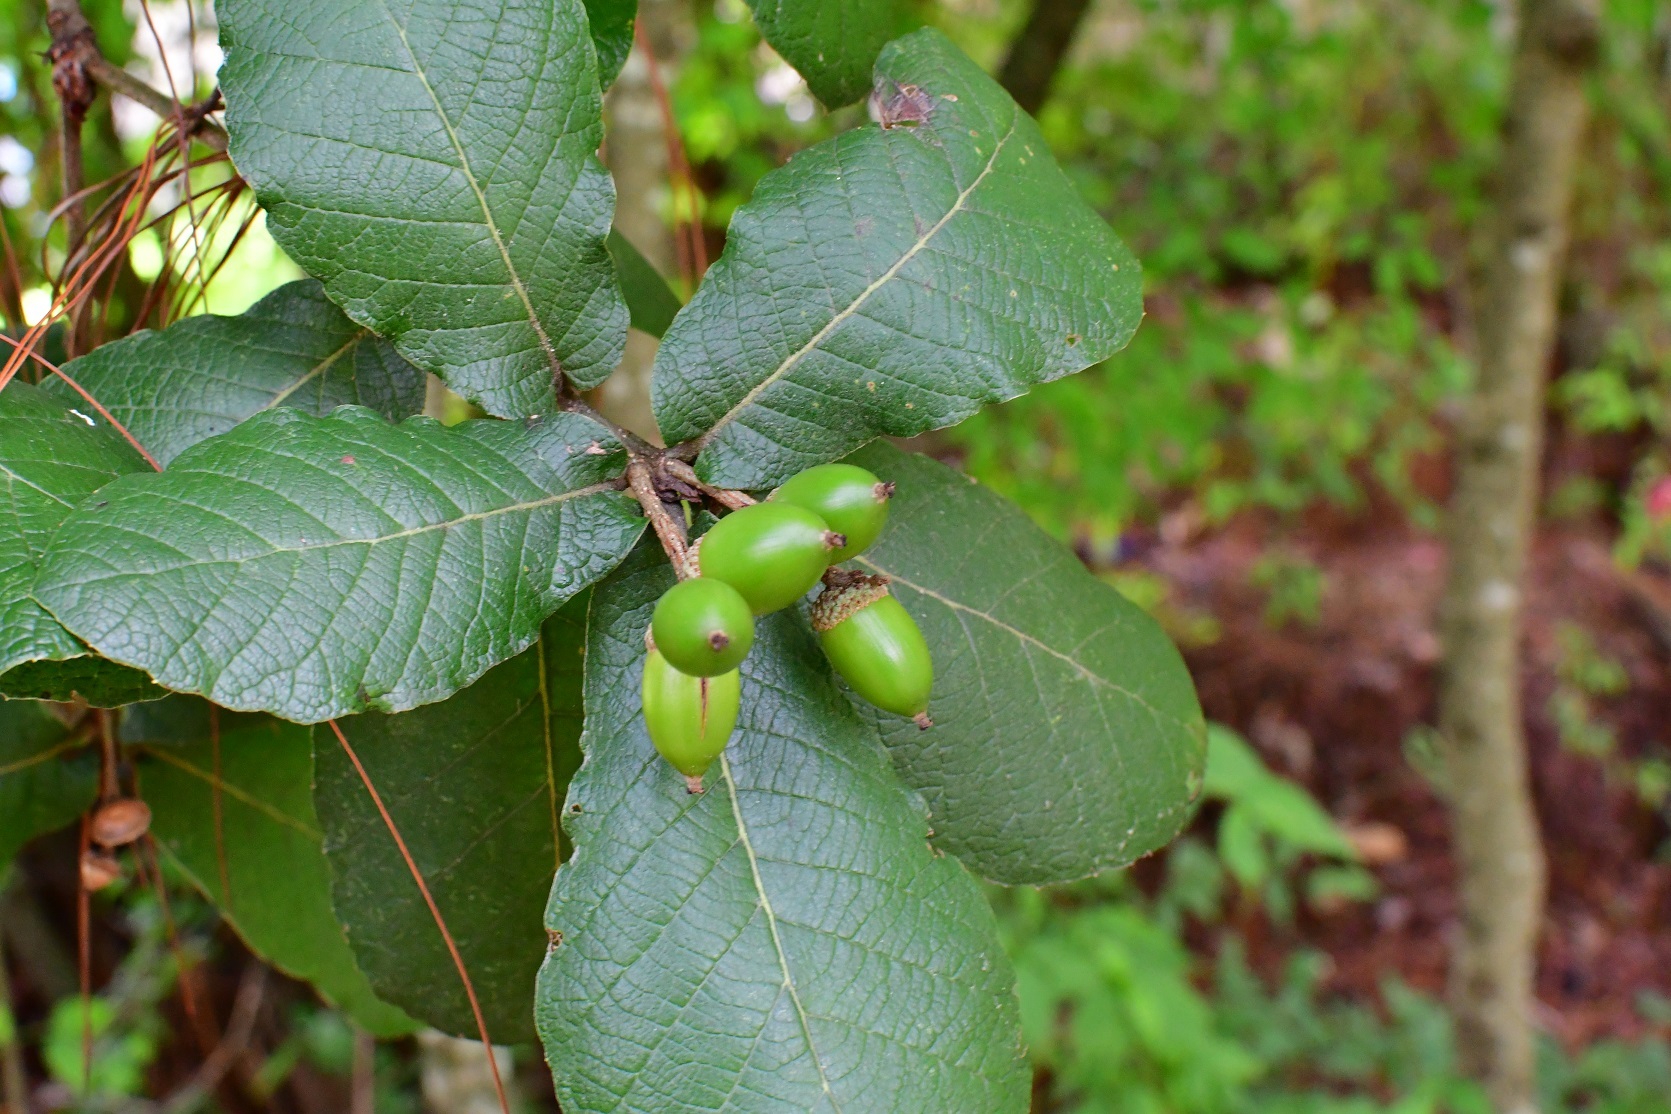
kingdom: Plantae
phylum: Tracheophyta
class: Magnoliopsida
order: Fagales
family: Fagaceae
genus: Quercus
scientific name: Quercus rugosa
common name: Netleaf oak
